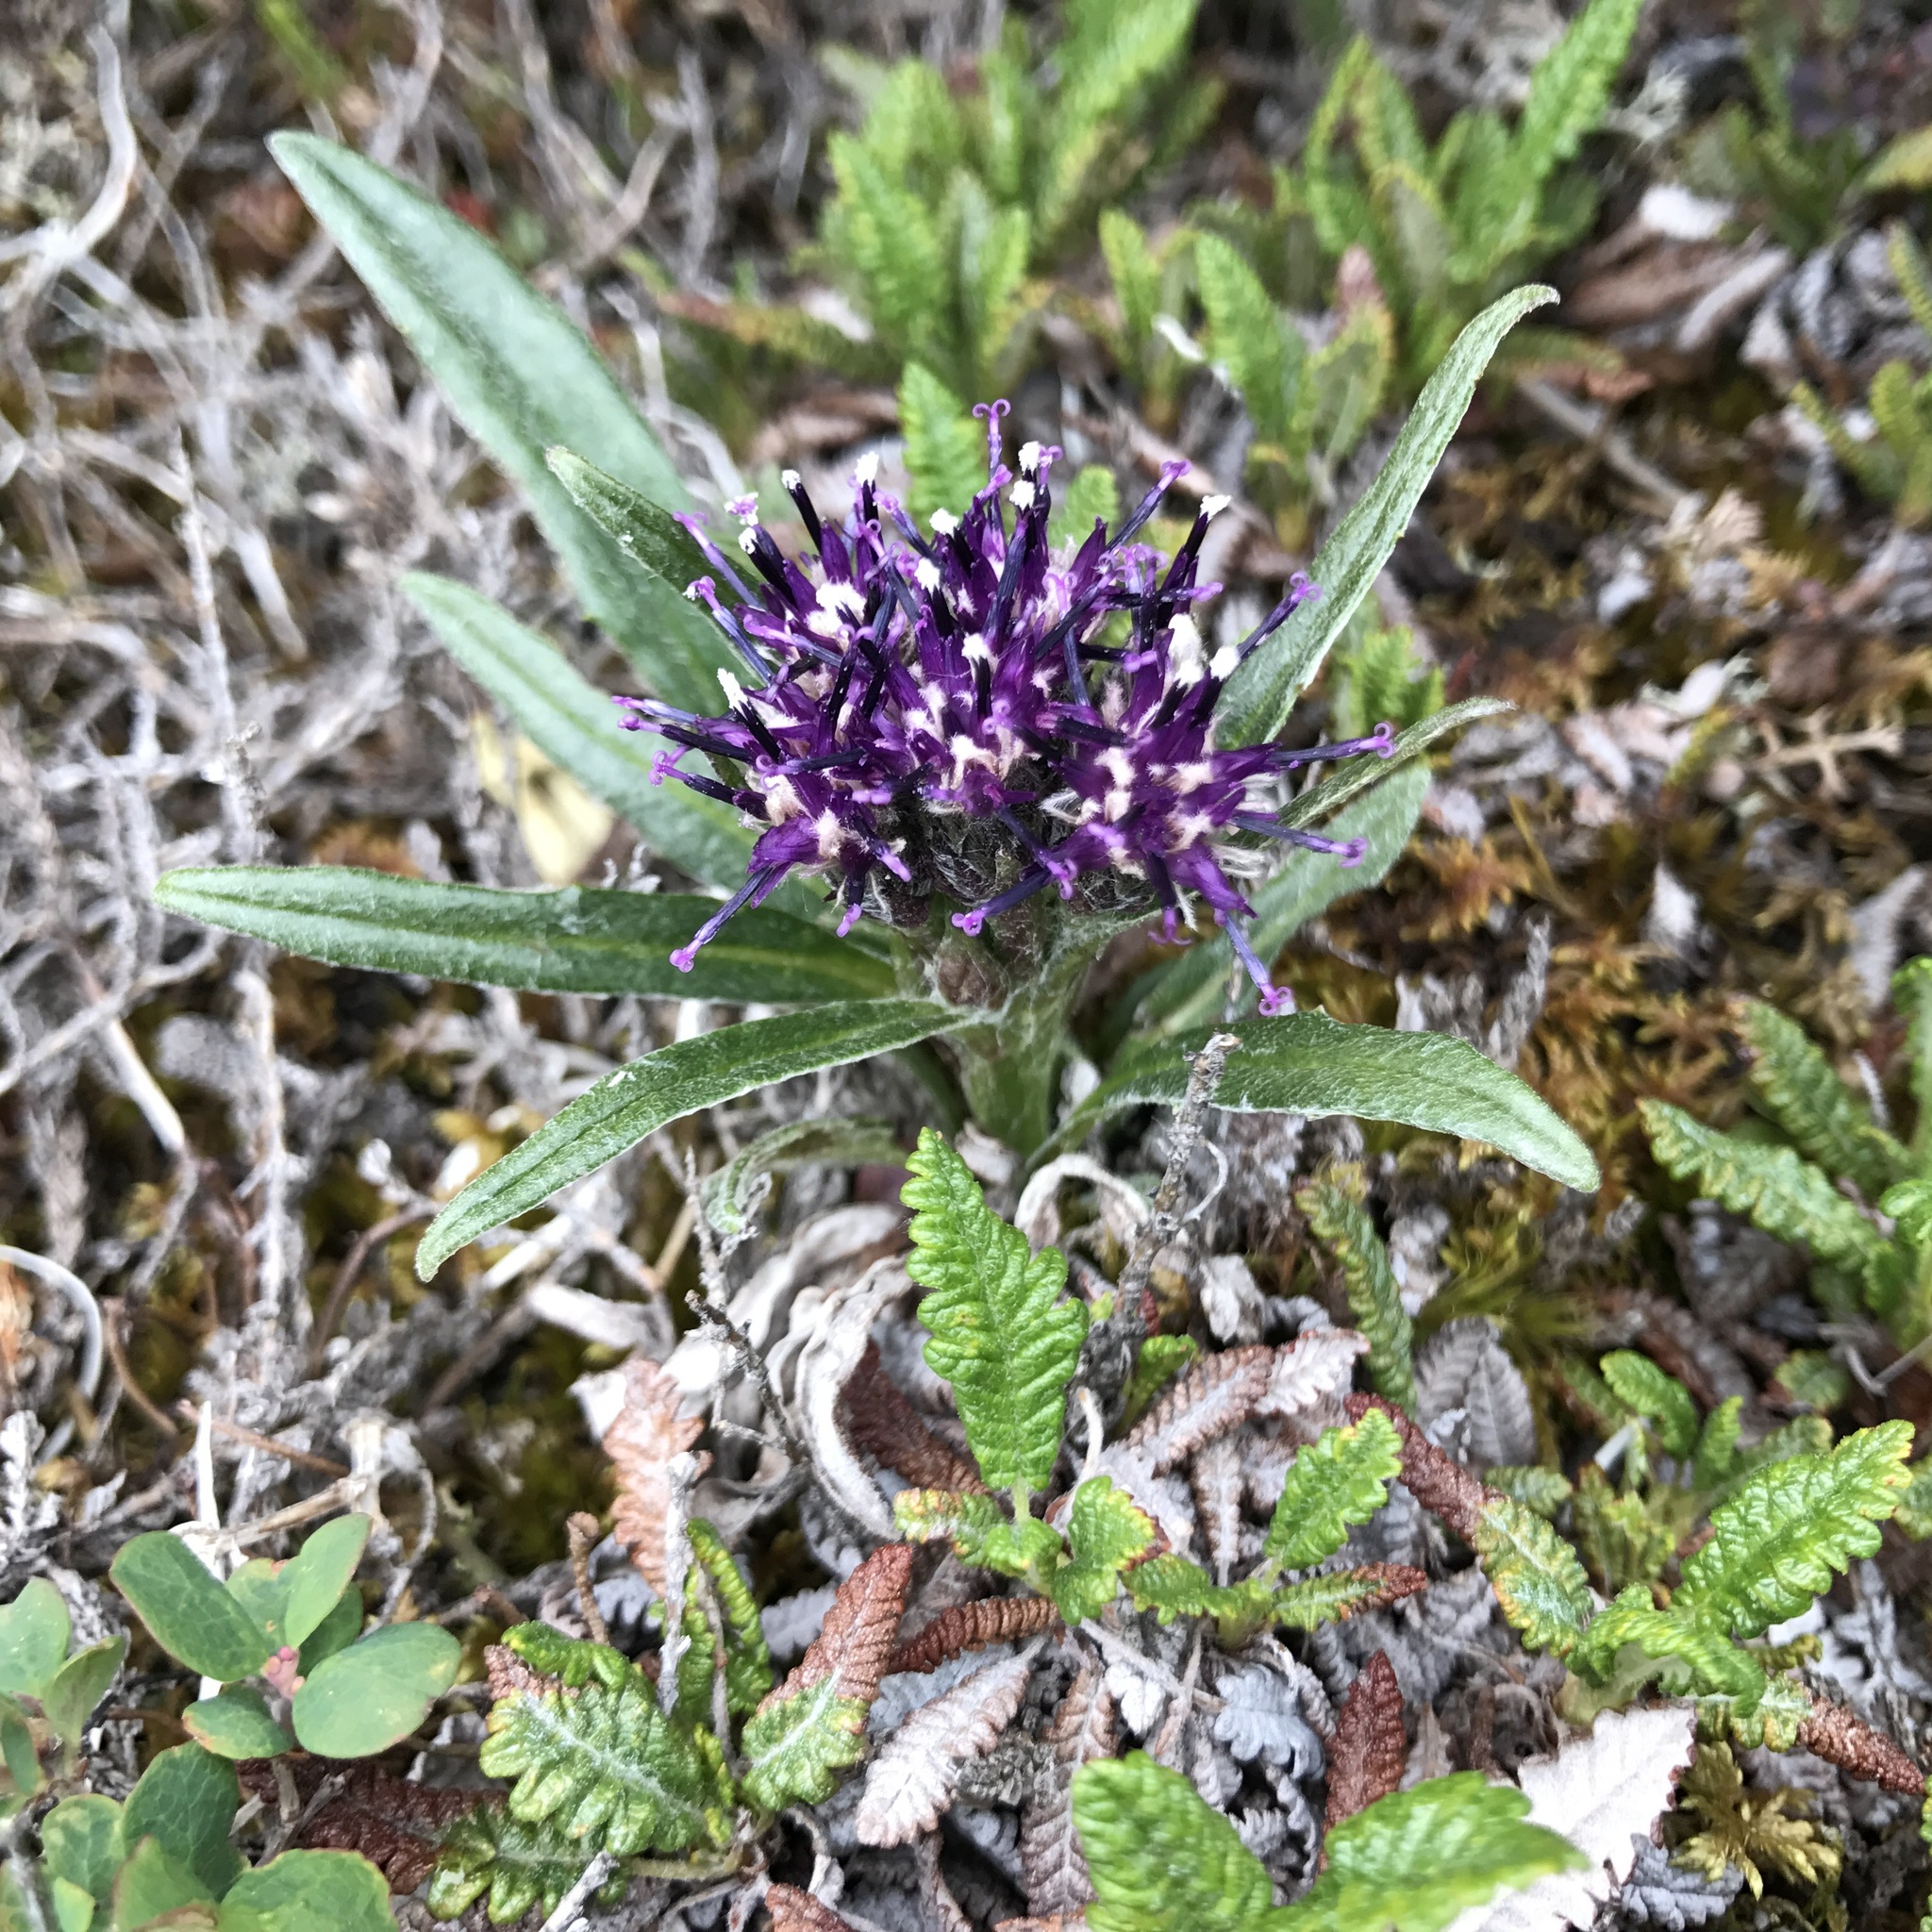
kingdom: Plantae
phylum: Tracheophyta
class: Magnoliopsida
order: Asterales
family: Asteraceae
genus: Saussurea
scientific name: Saussurea nuda
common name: Chaffless saw-wort
